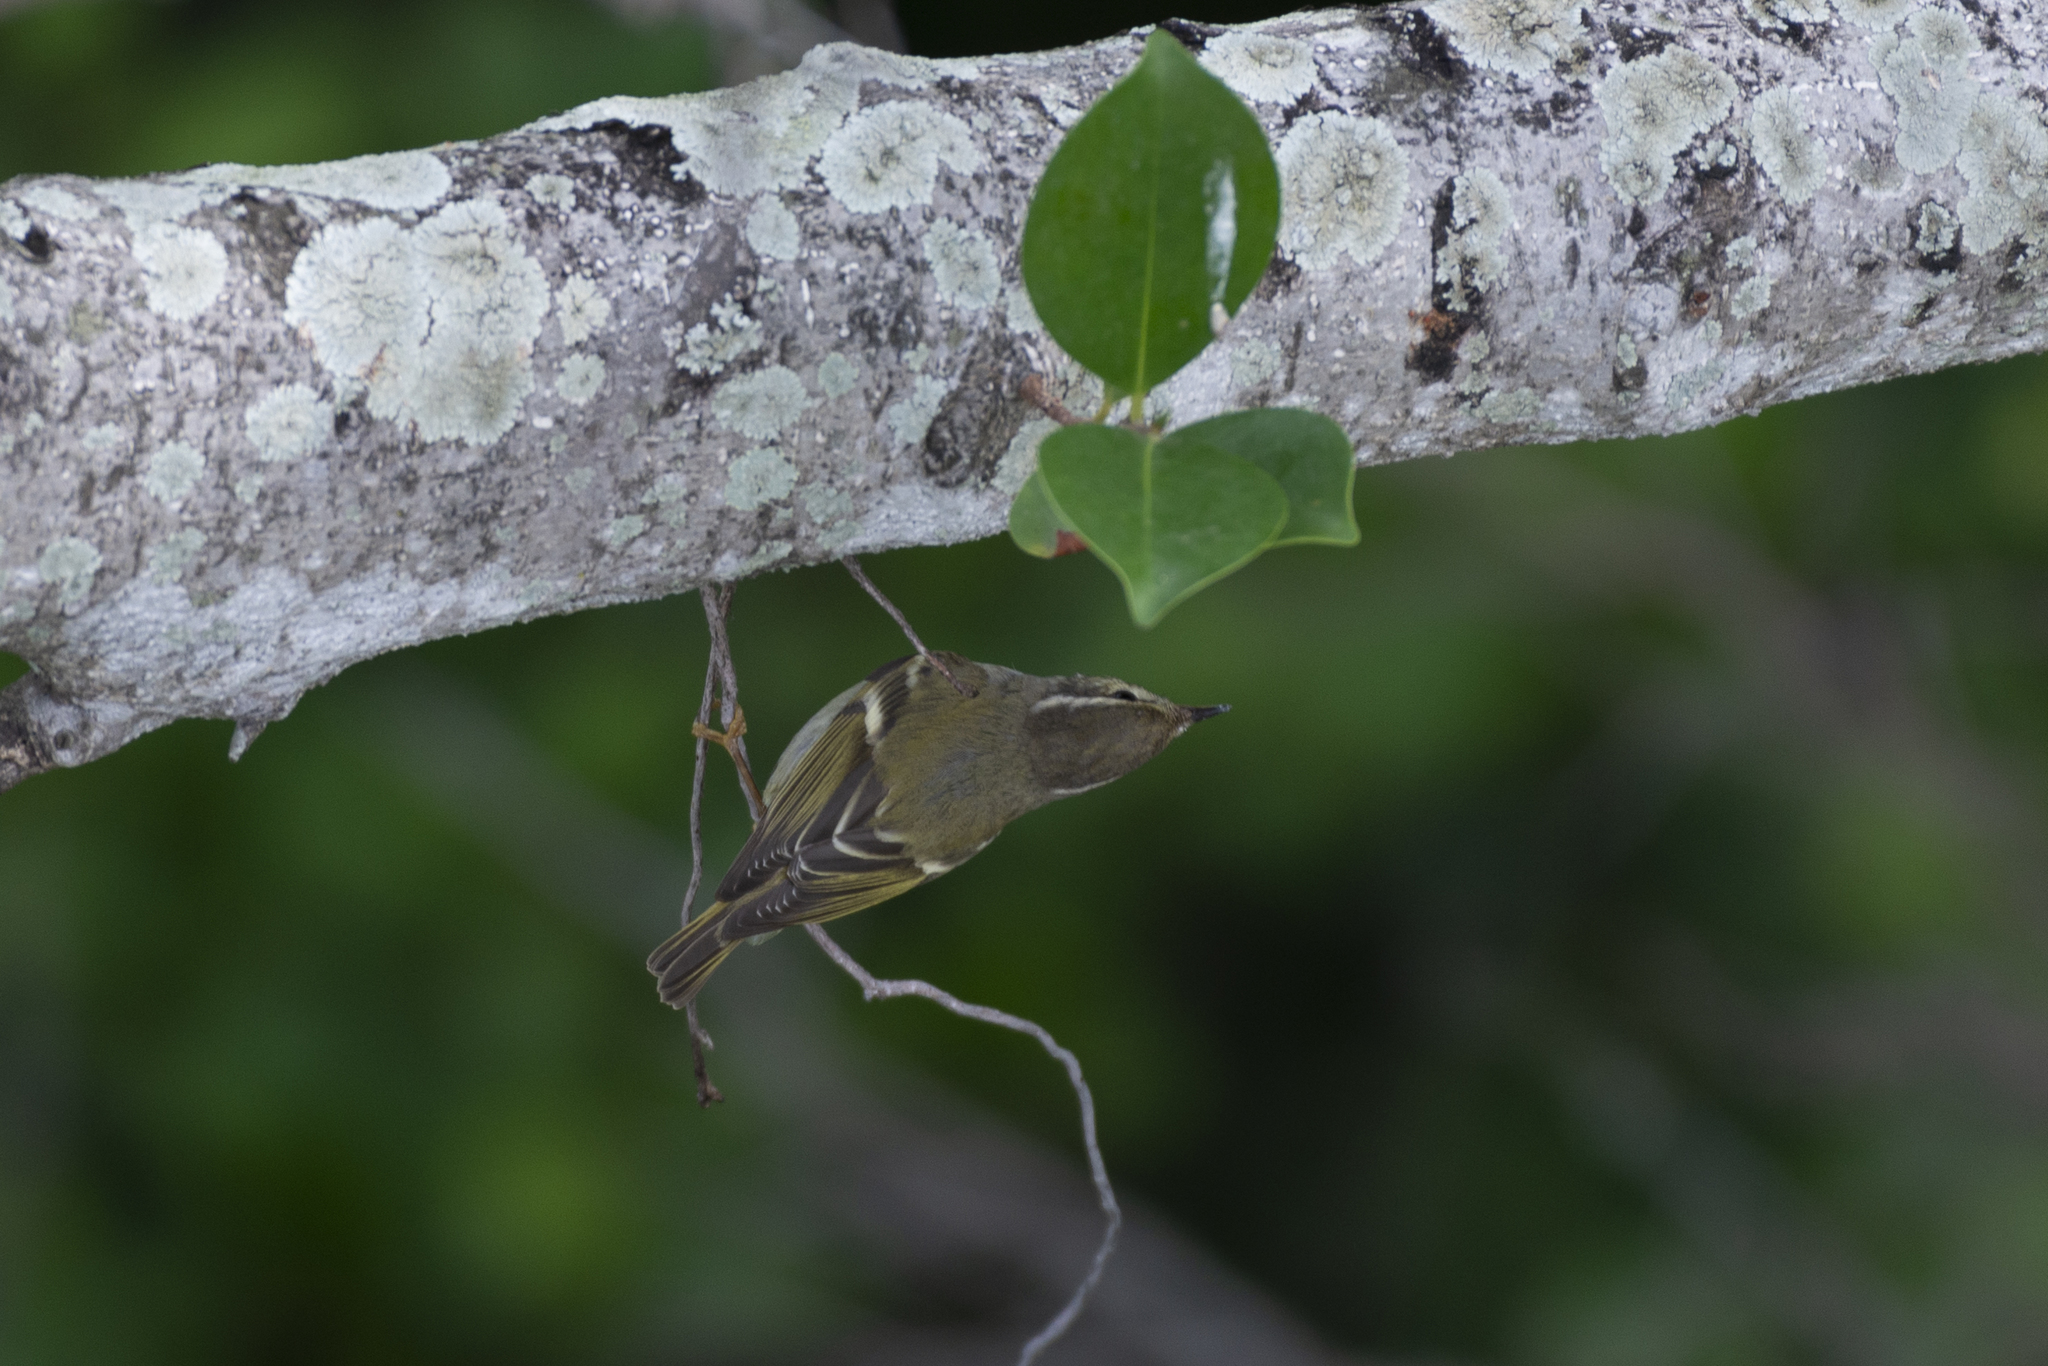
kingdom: Animalia
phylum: Chordata
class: Aves
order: Passeriformes
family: Phylloscopidae
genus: Phylloscopus
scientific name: Phylloscopus inornatus
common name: Yellow-browed warbler
